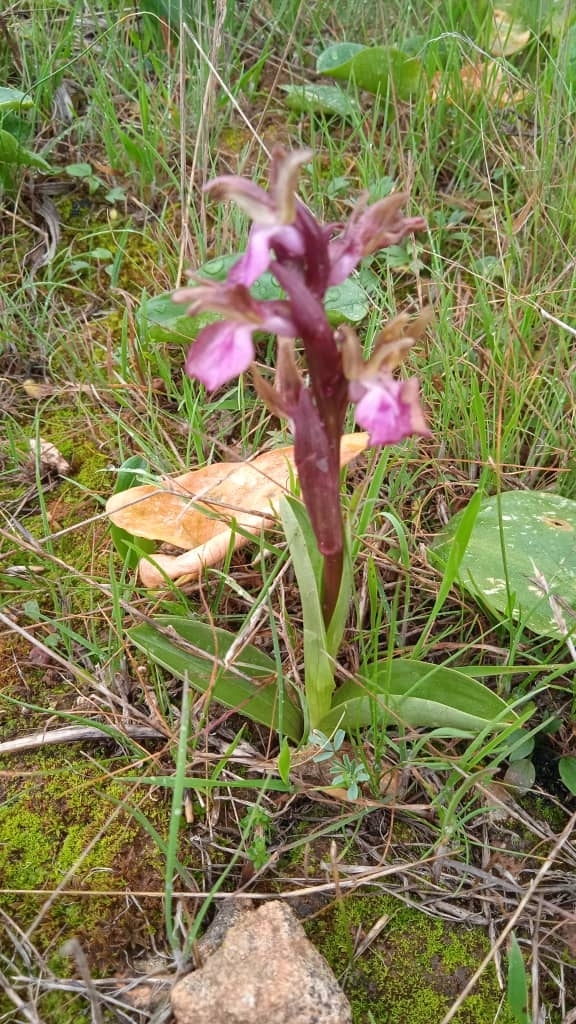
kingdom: Plantae
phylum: Tracheophyta
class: Liliopsida
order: Asparagales
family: Orchidaceae
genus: Anacamptis
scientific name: Anacamptis collina
